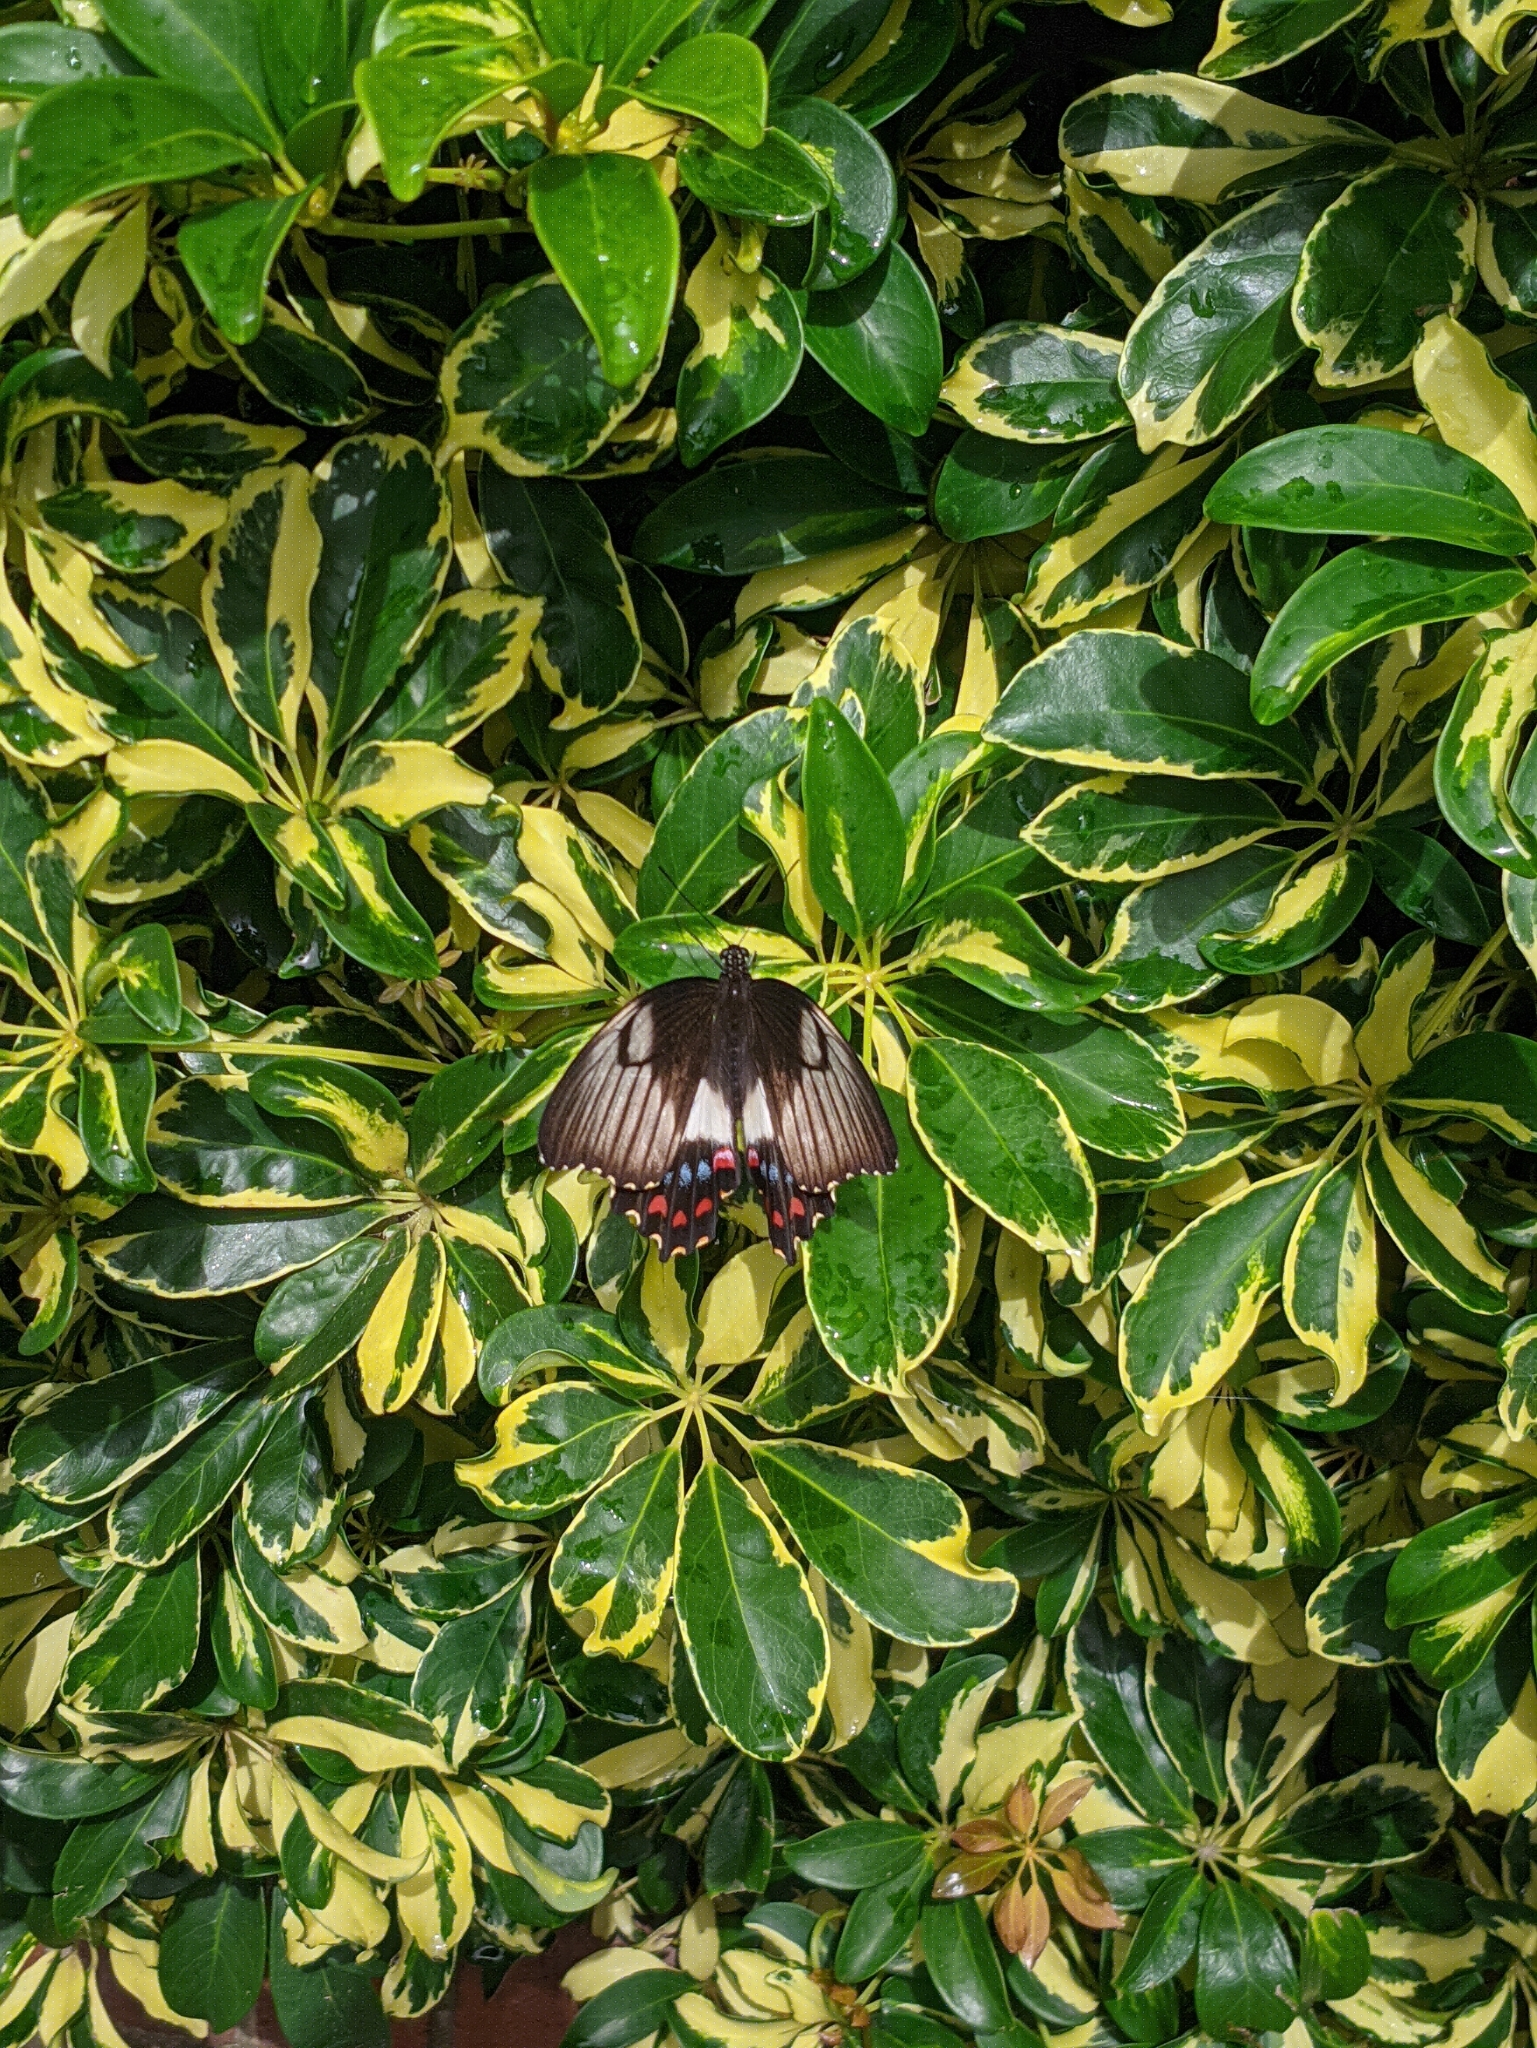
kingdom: Animalia
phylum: Arthropoda
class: Insecta
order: Lepidoptera
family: Papilionidae
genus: Papilio
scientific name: Papilio aegeus
